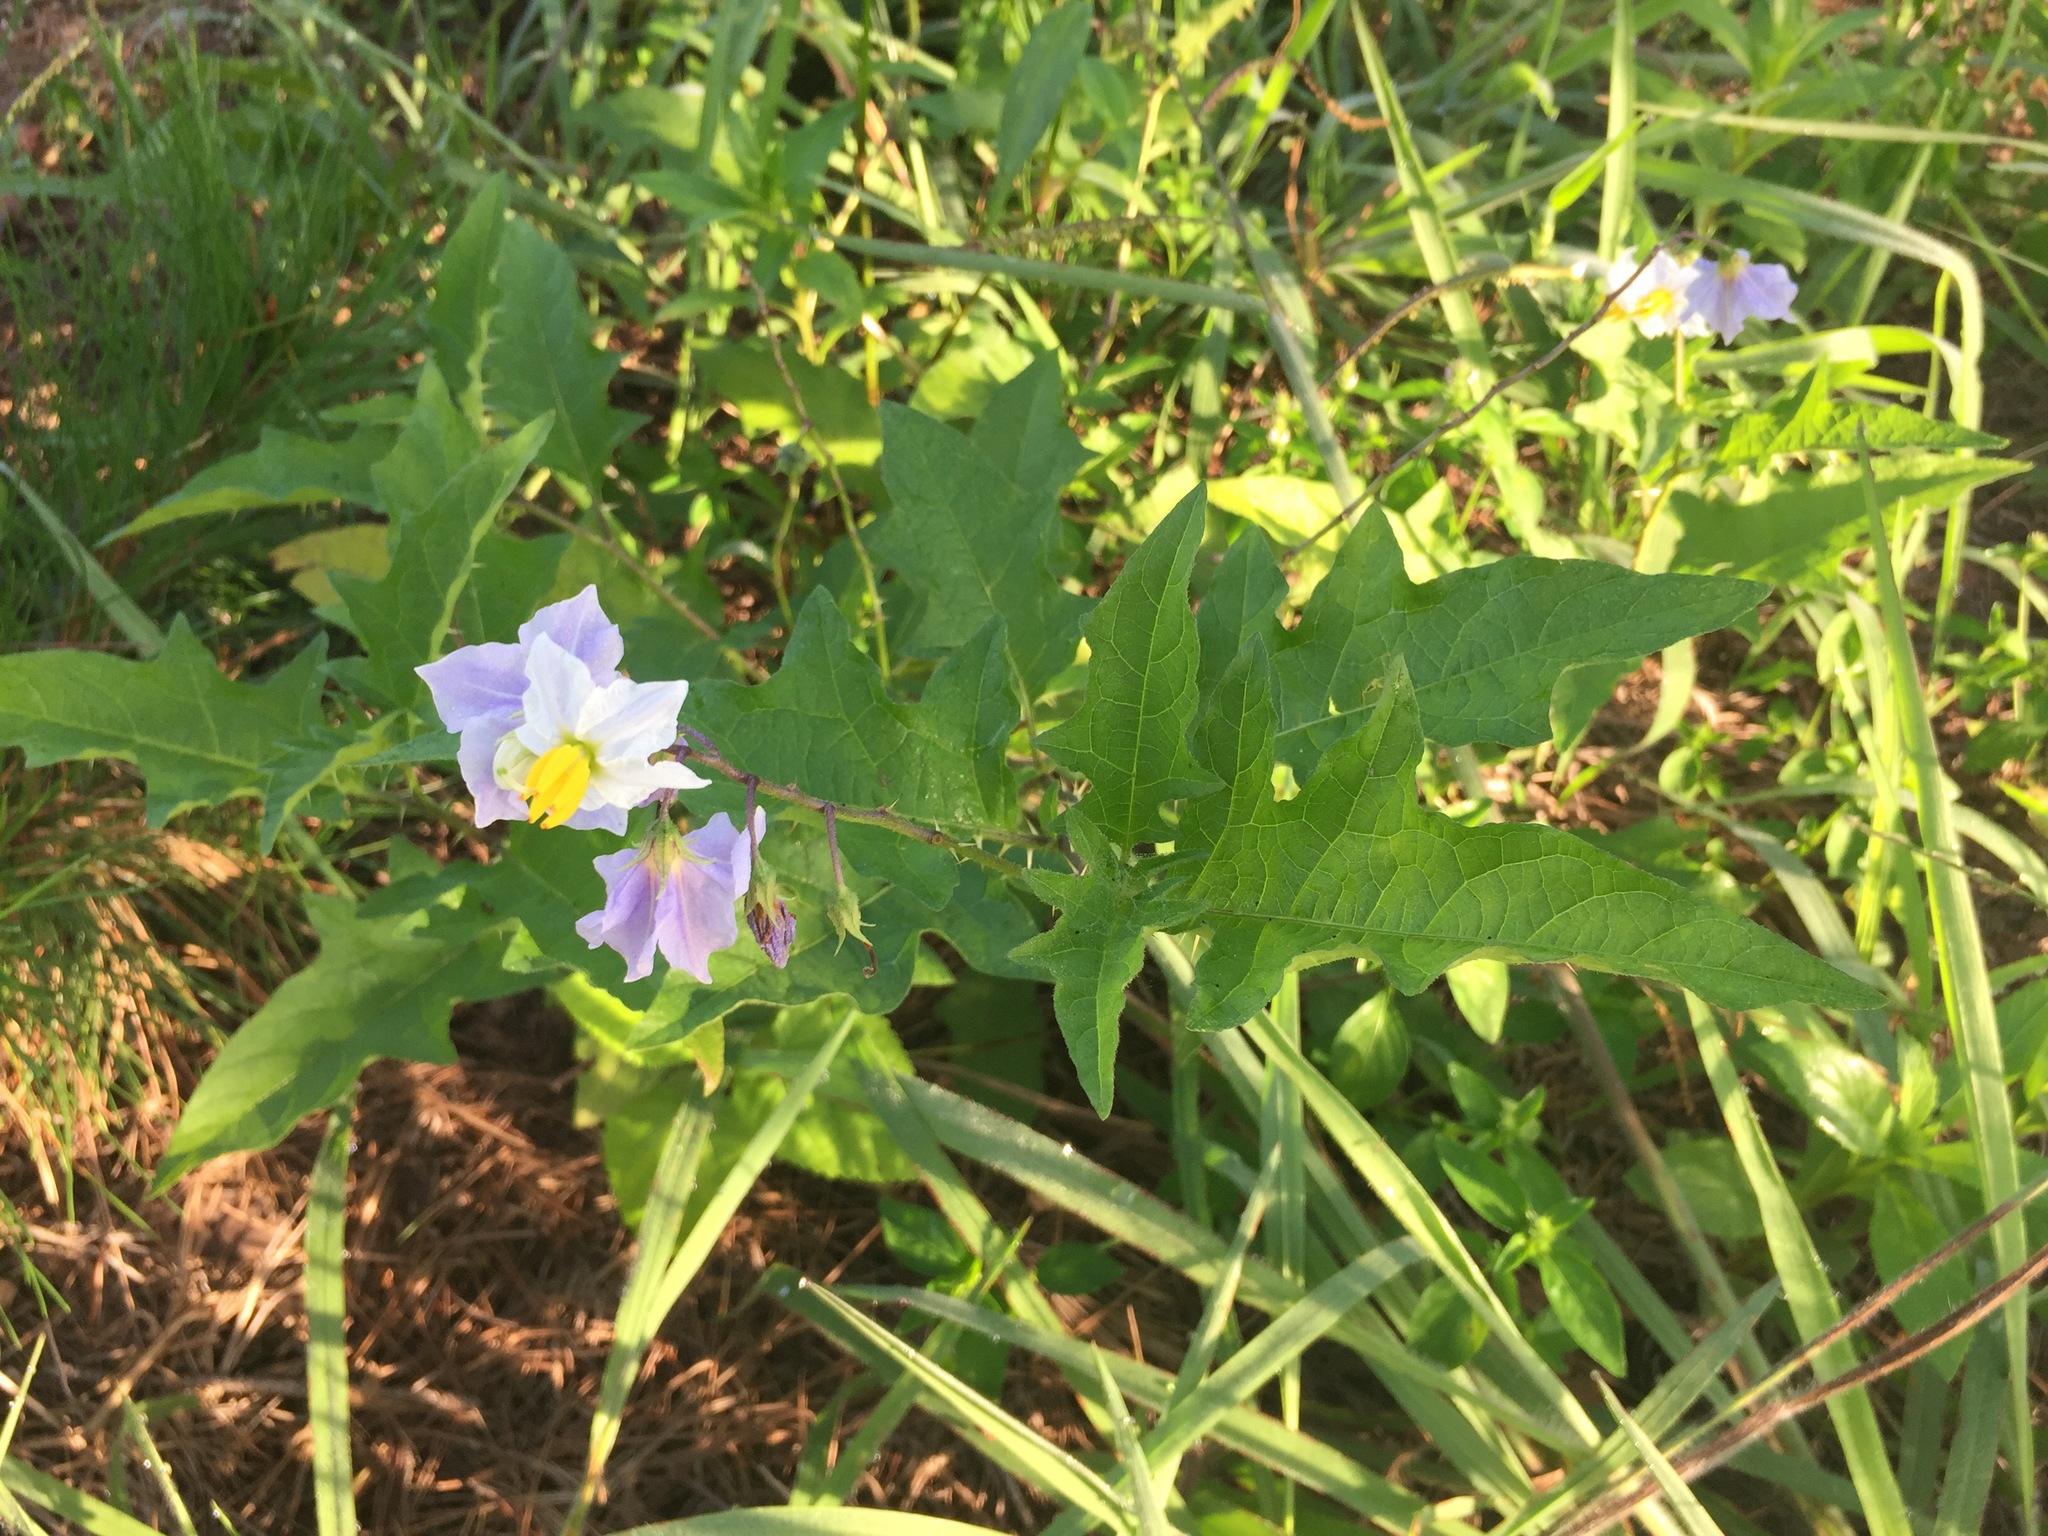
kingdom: Plantae
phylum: Tracheophyta
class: Magnoliopsida
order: Solanales
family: Solanaceae
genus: Solanum
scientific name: Solanum carolinense
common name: Horse-nettle
